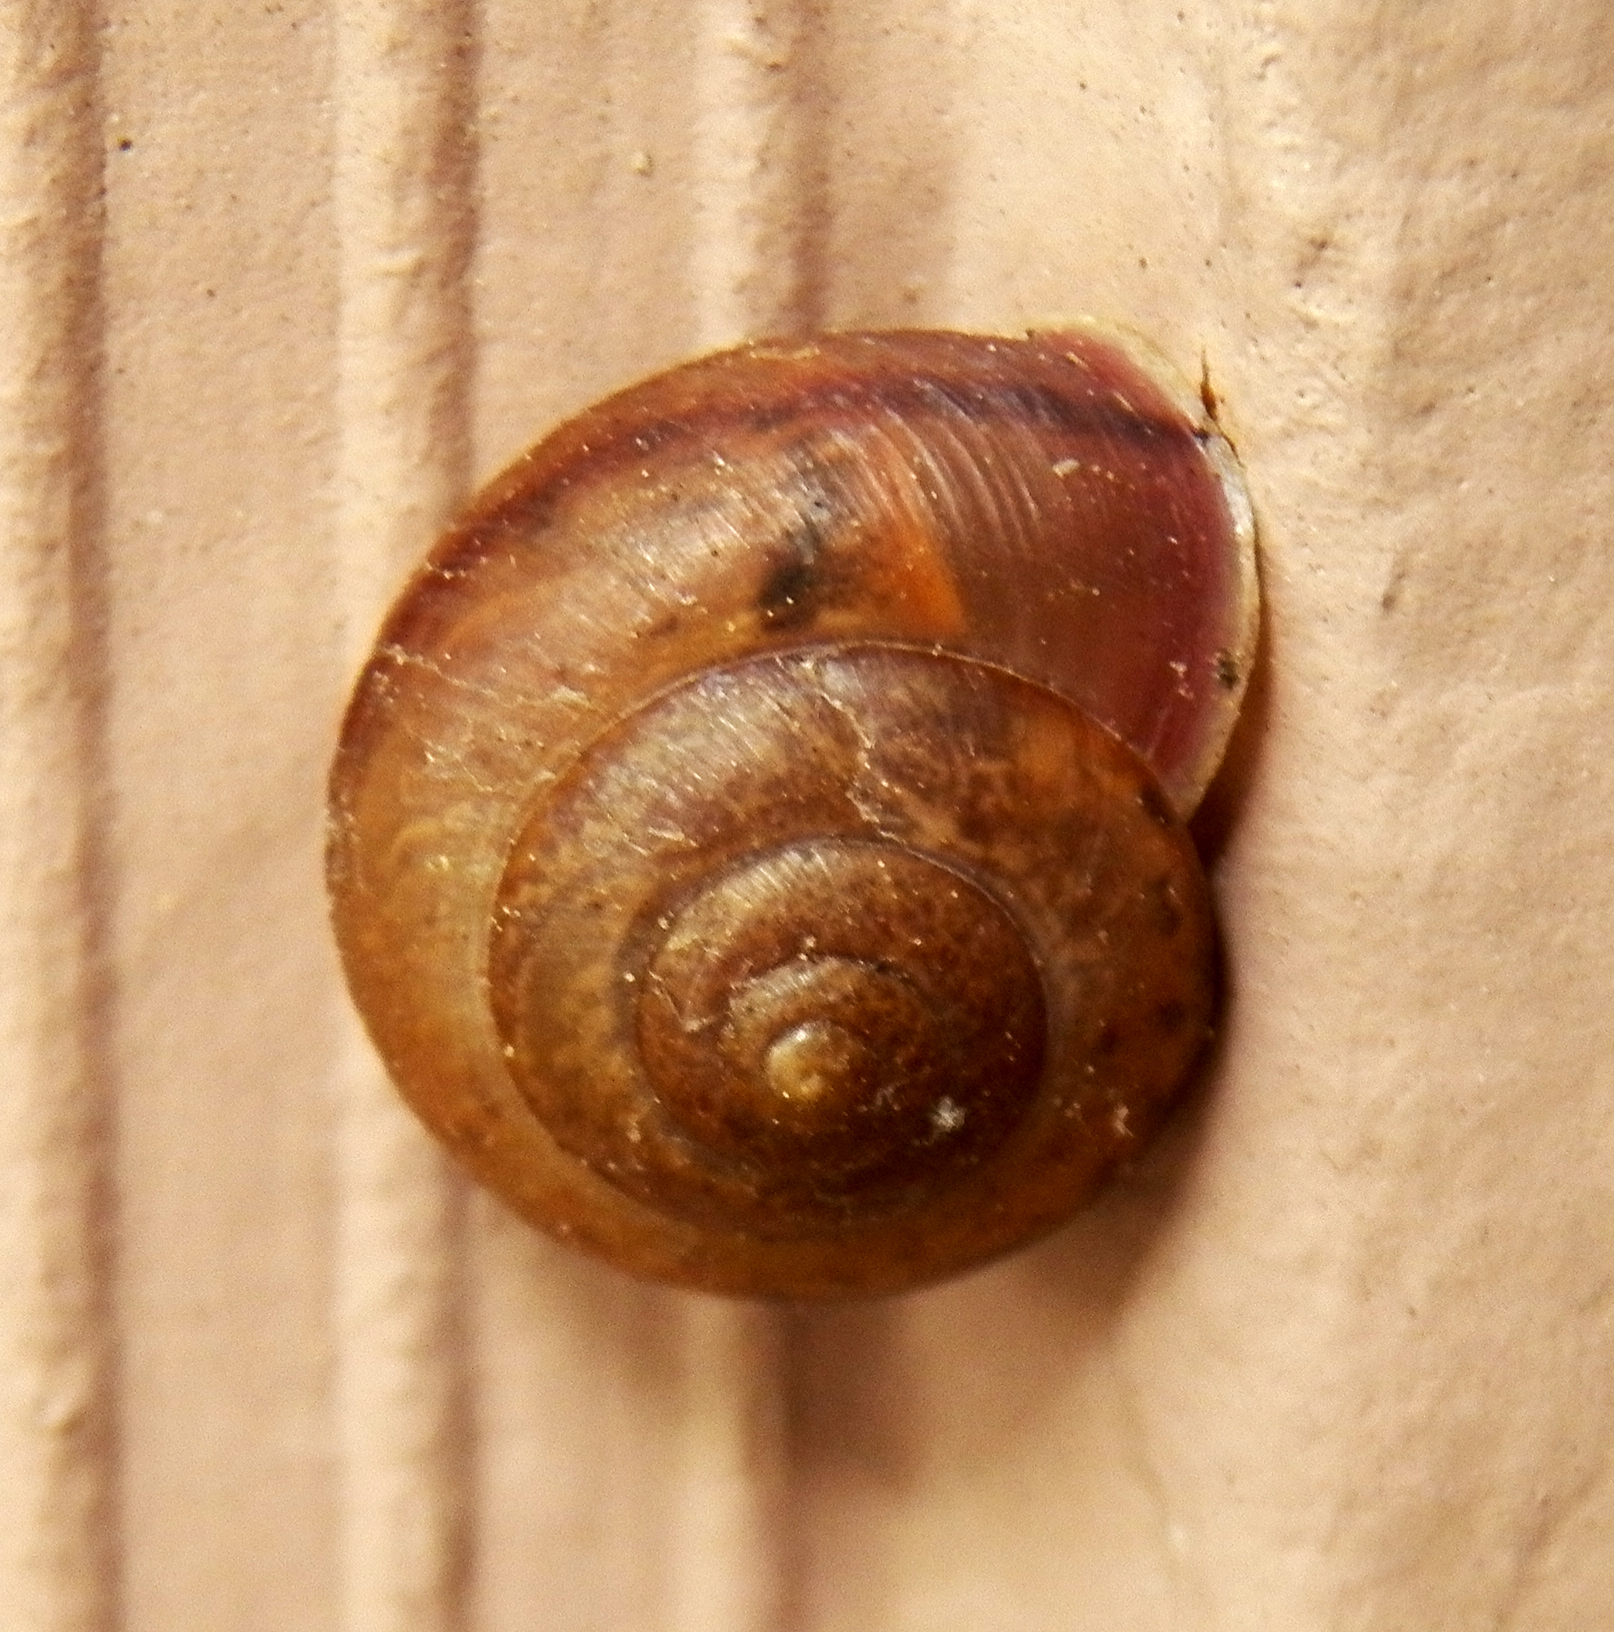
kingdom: Animalia
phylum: Mollusca
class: Gastropoda
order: Stylommatophora
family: Camaenidae
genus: Bradybaena
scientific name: Bradybaena similaris
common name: Asian trampsnail
